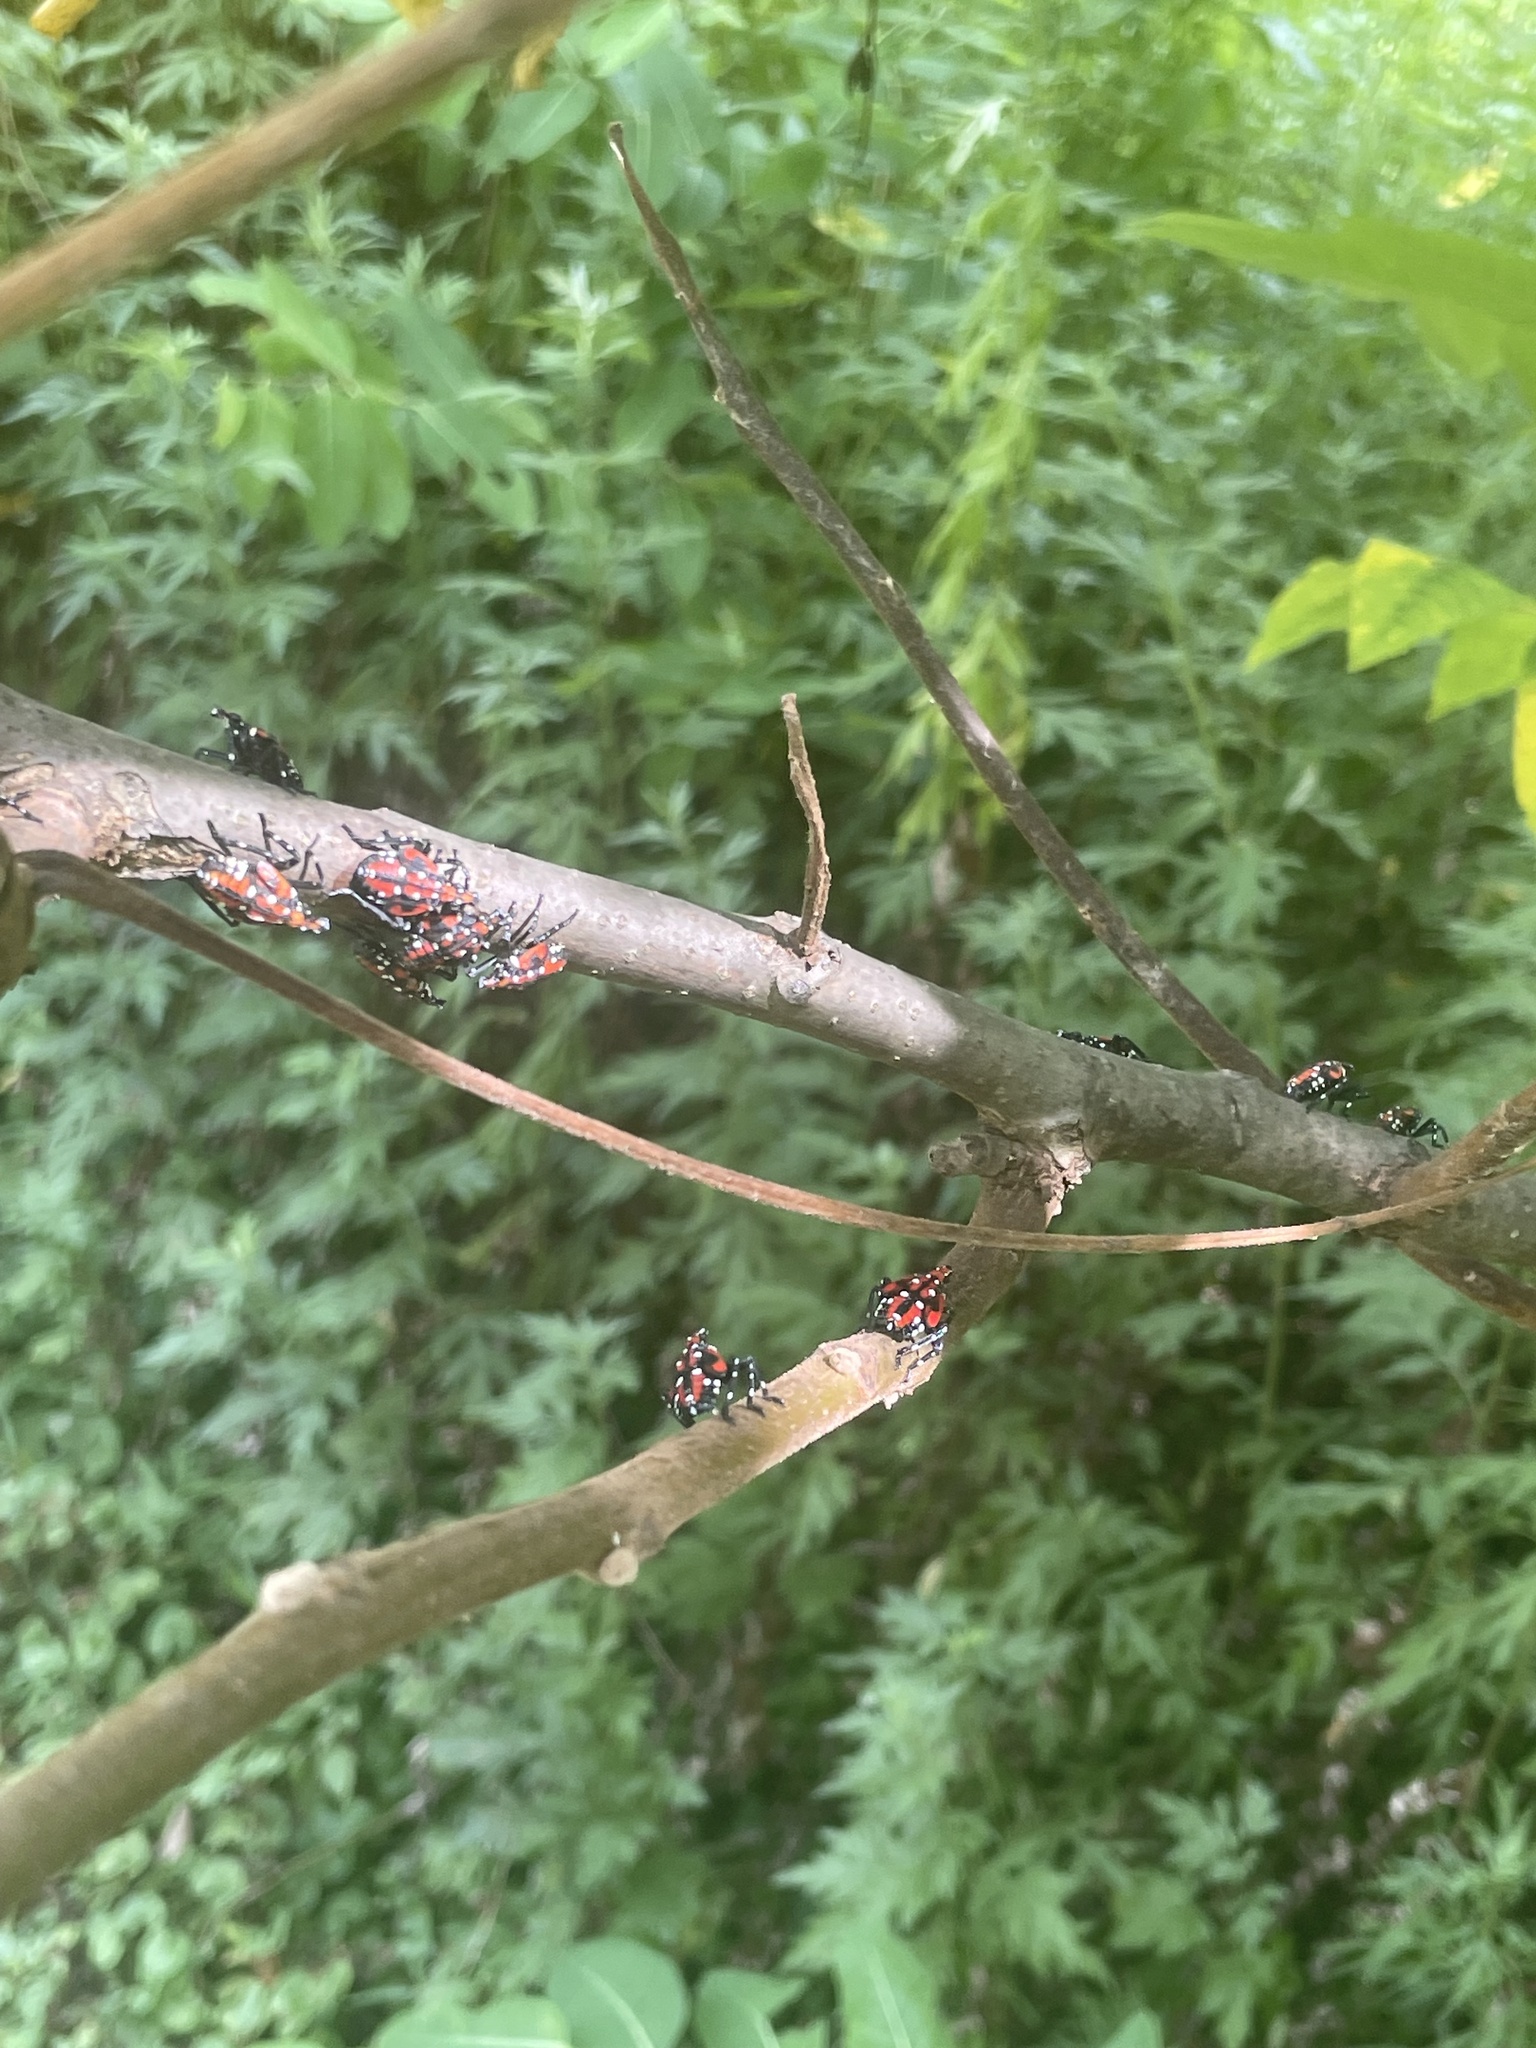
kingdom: Animalia
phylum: Arthropoda
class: Insecta
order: Hemiptera
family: Fulgoridae
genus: Lycorma
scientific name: Lycorma delicatula
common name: Spotted lanternfly
